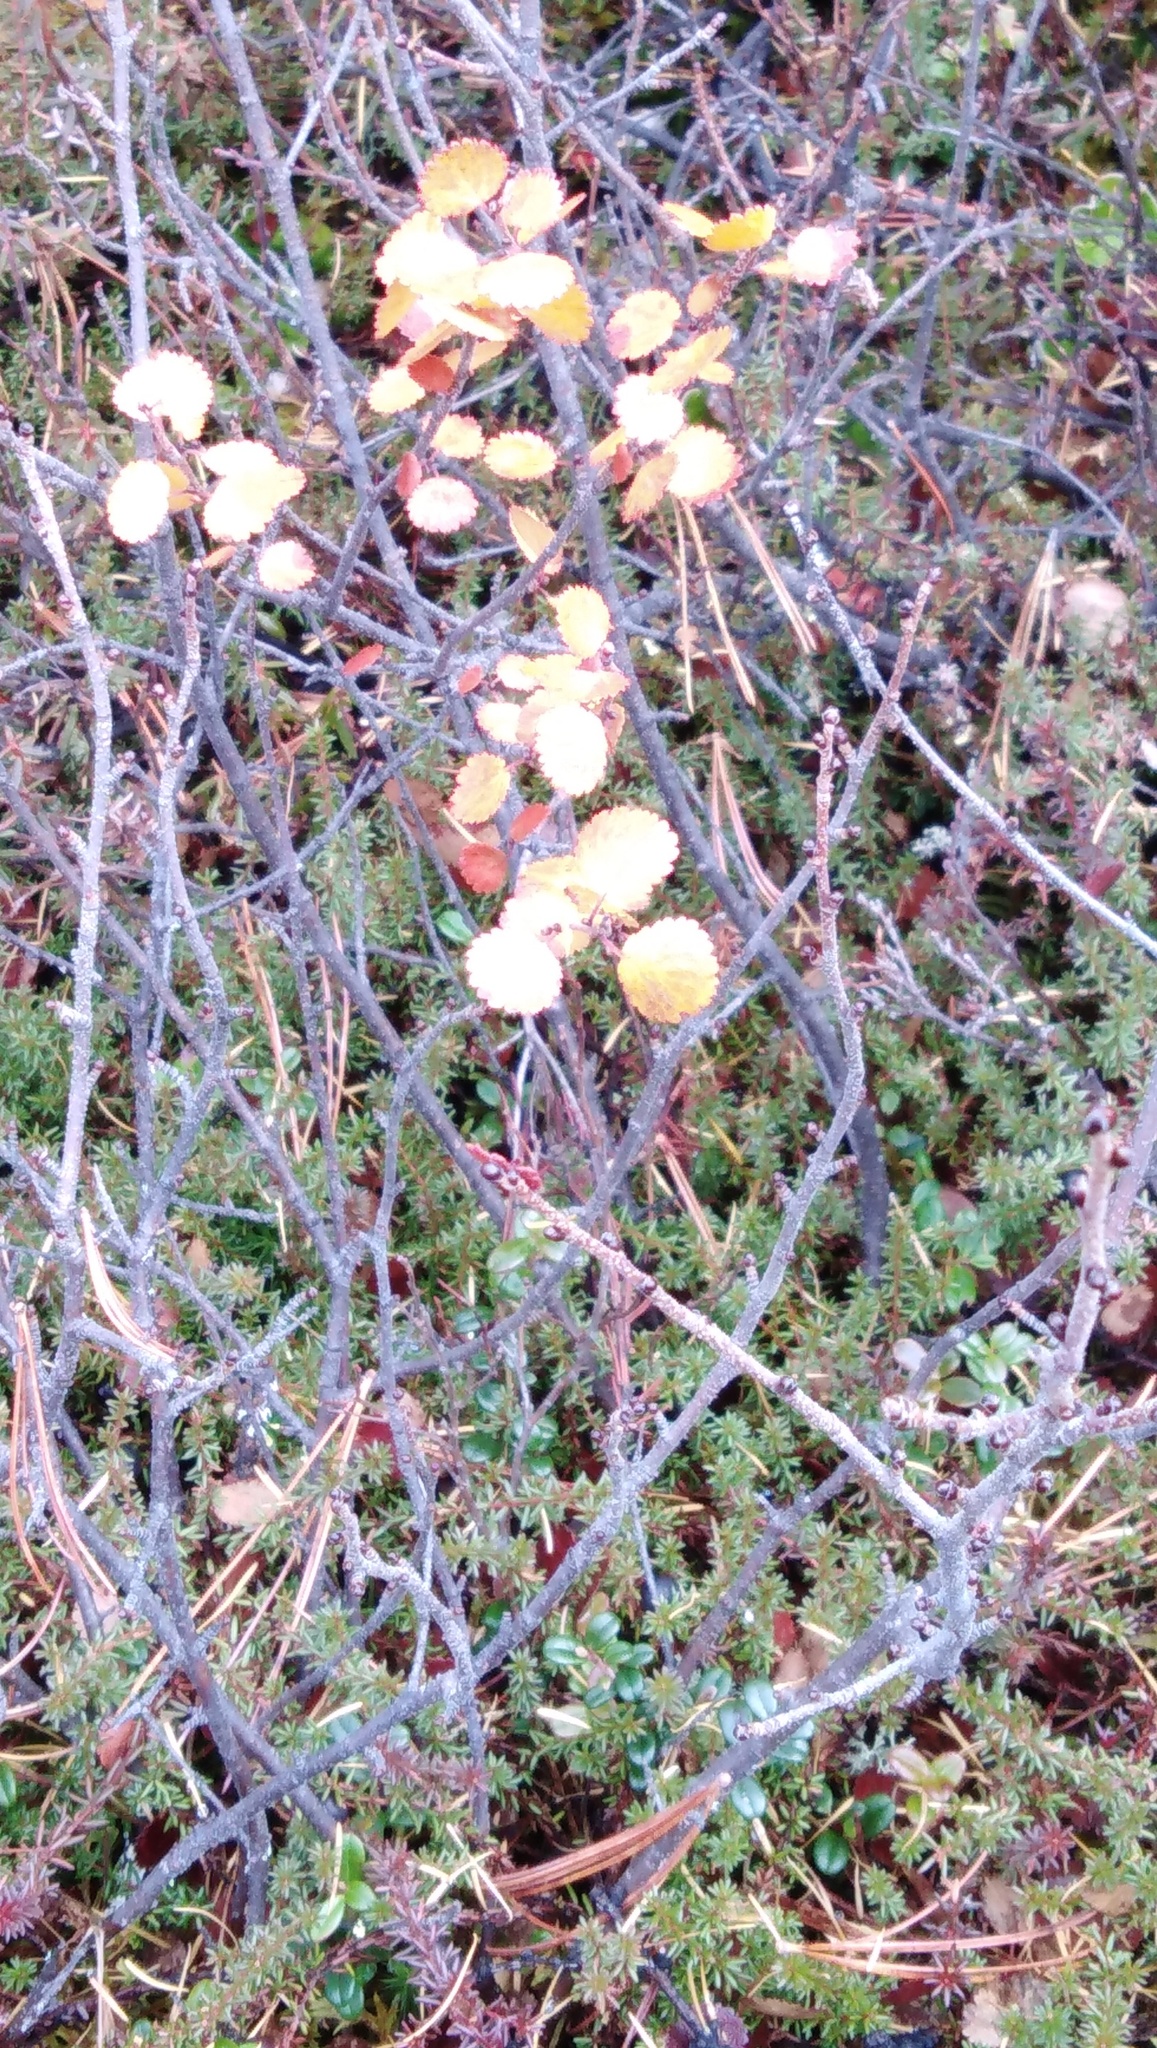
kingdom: Plantae
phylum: Tracheophyta
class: Magnoliopsida
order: Fagales
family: Betulaceae
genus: Betula
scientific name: Betula fruticosa
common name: Japanese bog birch
